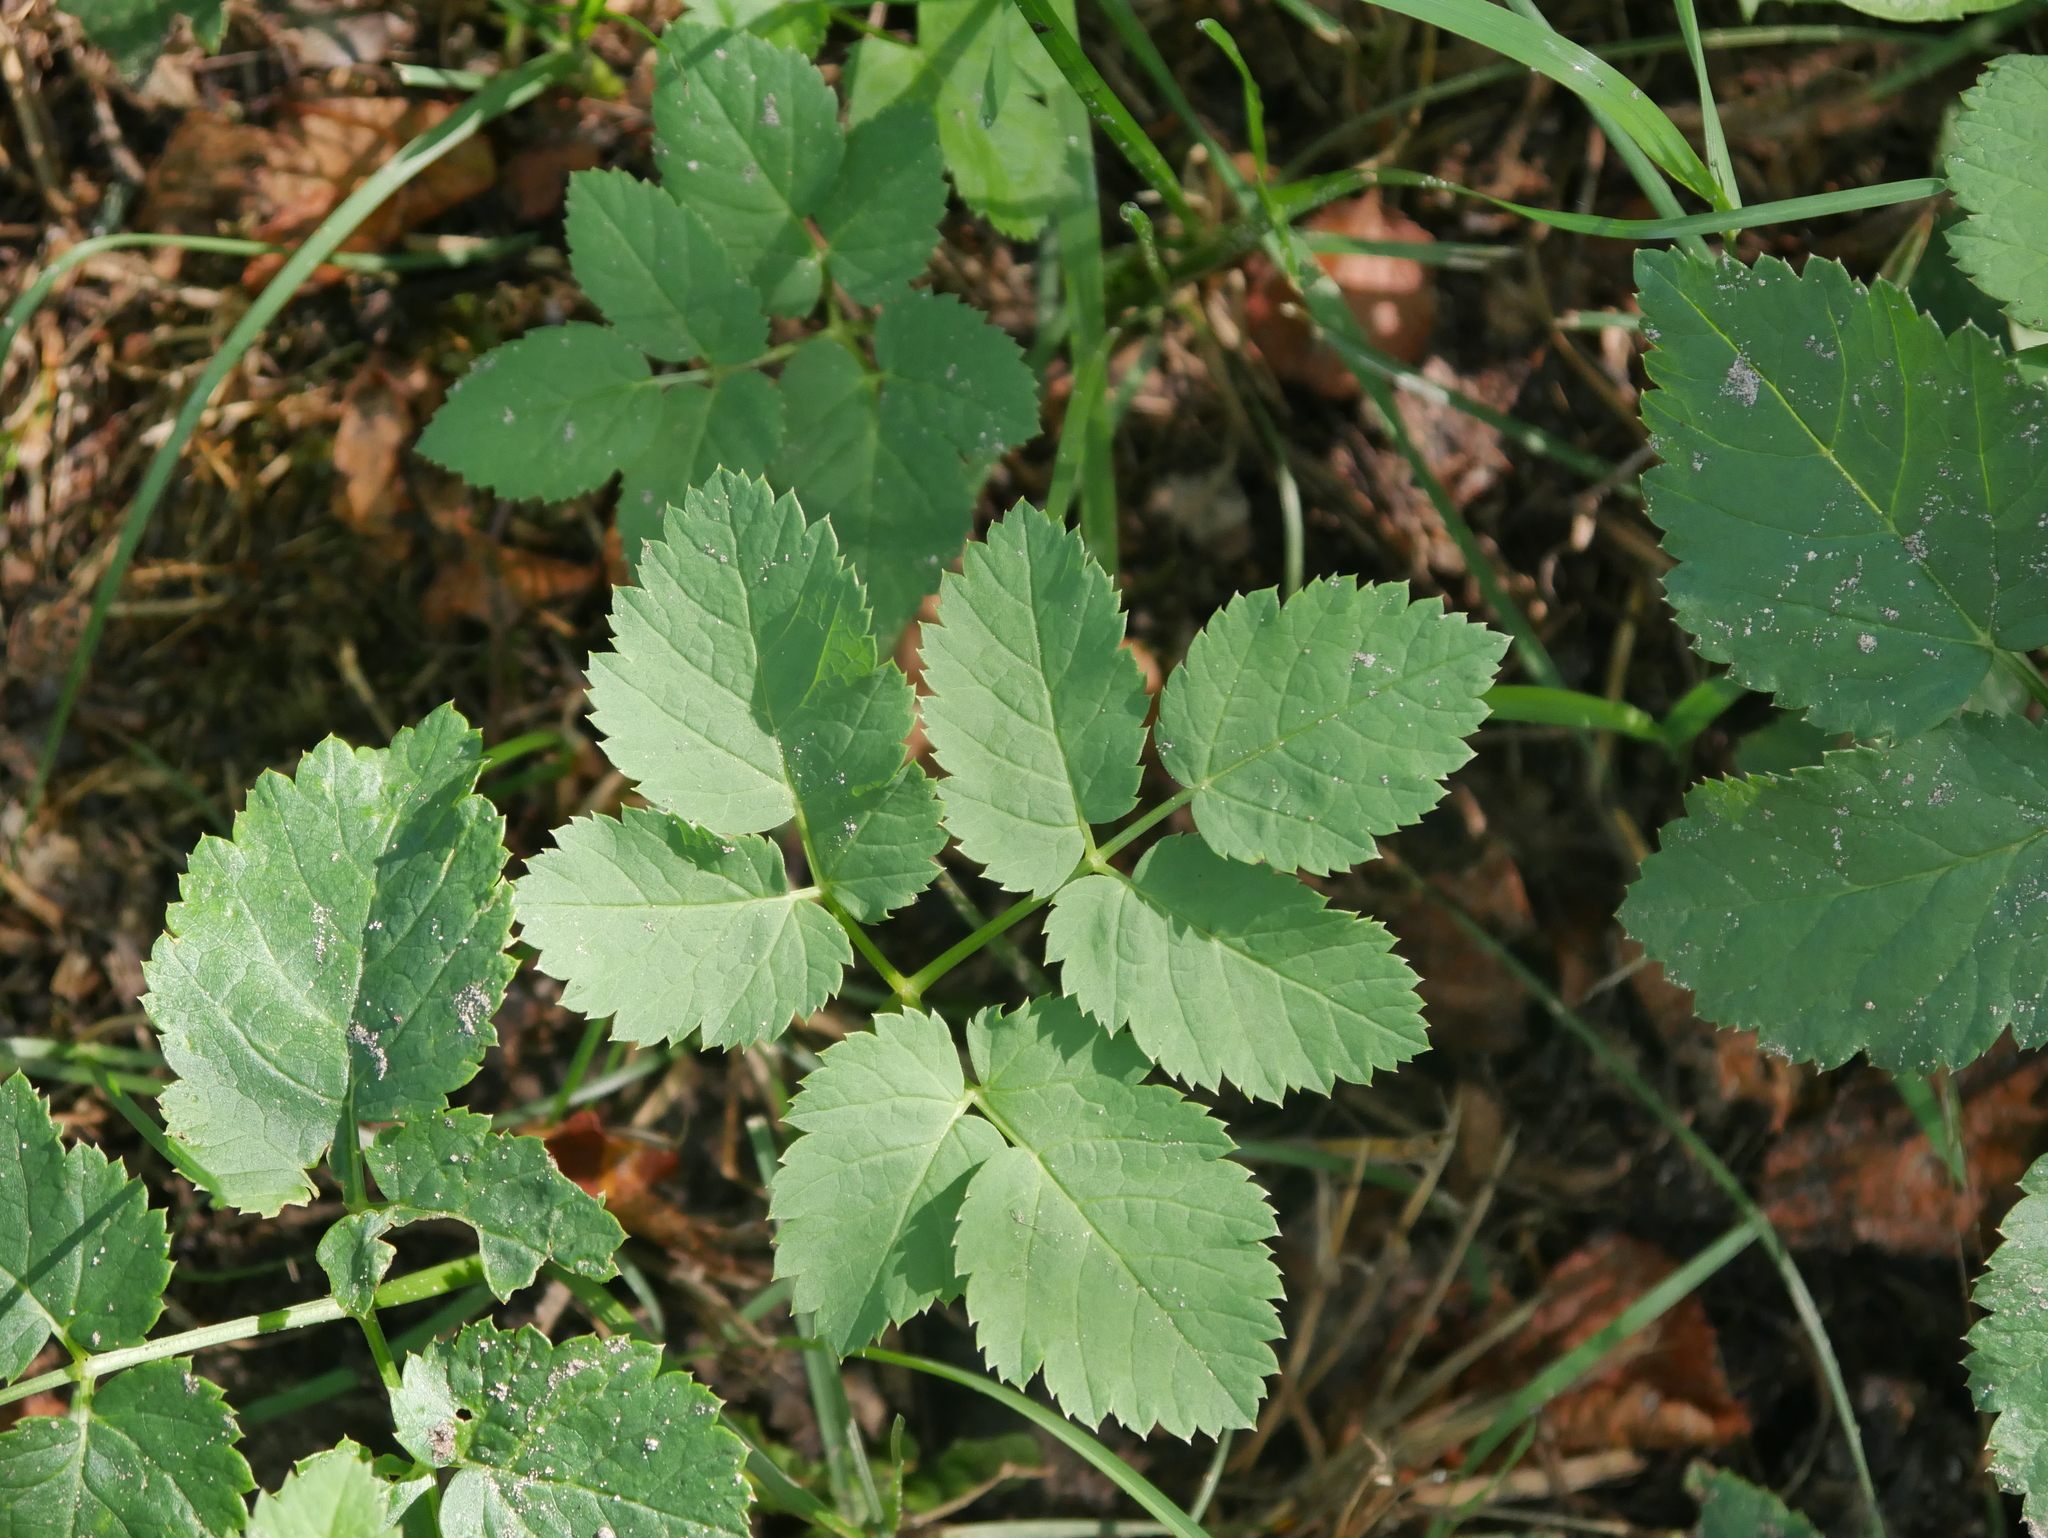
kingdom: Plantae
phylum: Tracheophyta
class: Magnoliopsida
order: Apiales
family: Apiaceae
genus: Aegopodium
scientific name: Aegopodium podagraria
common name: Ground-elder
